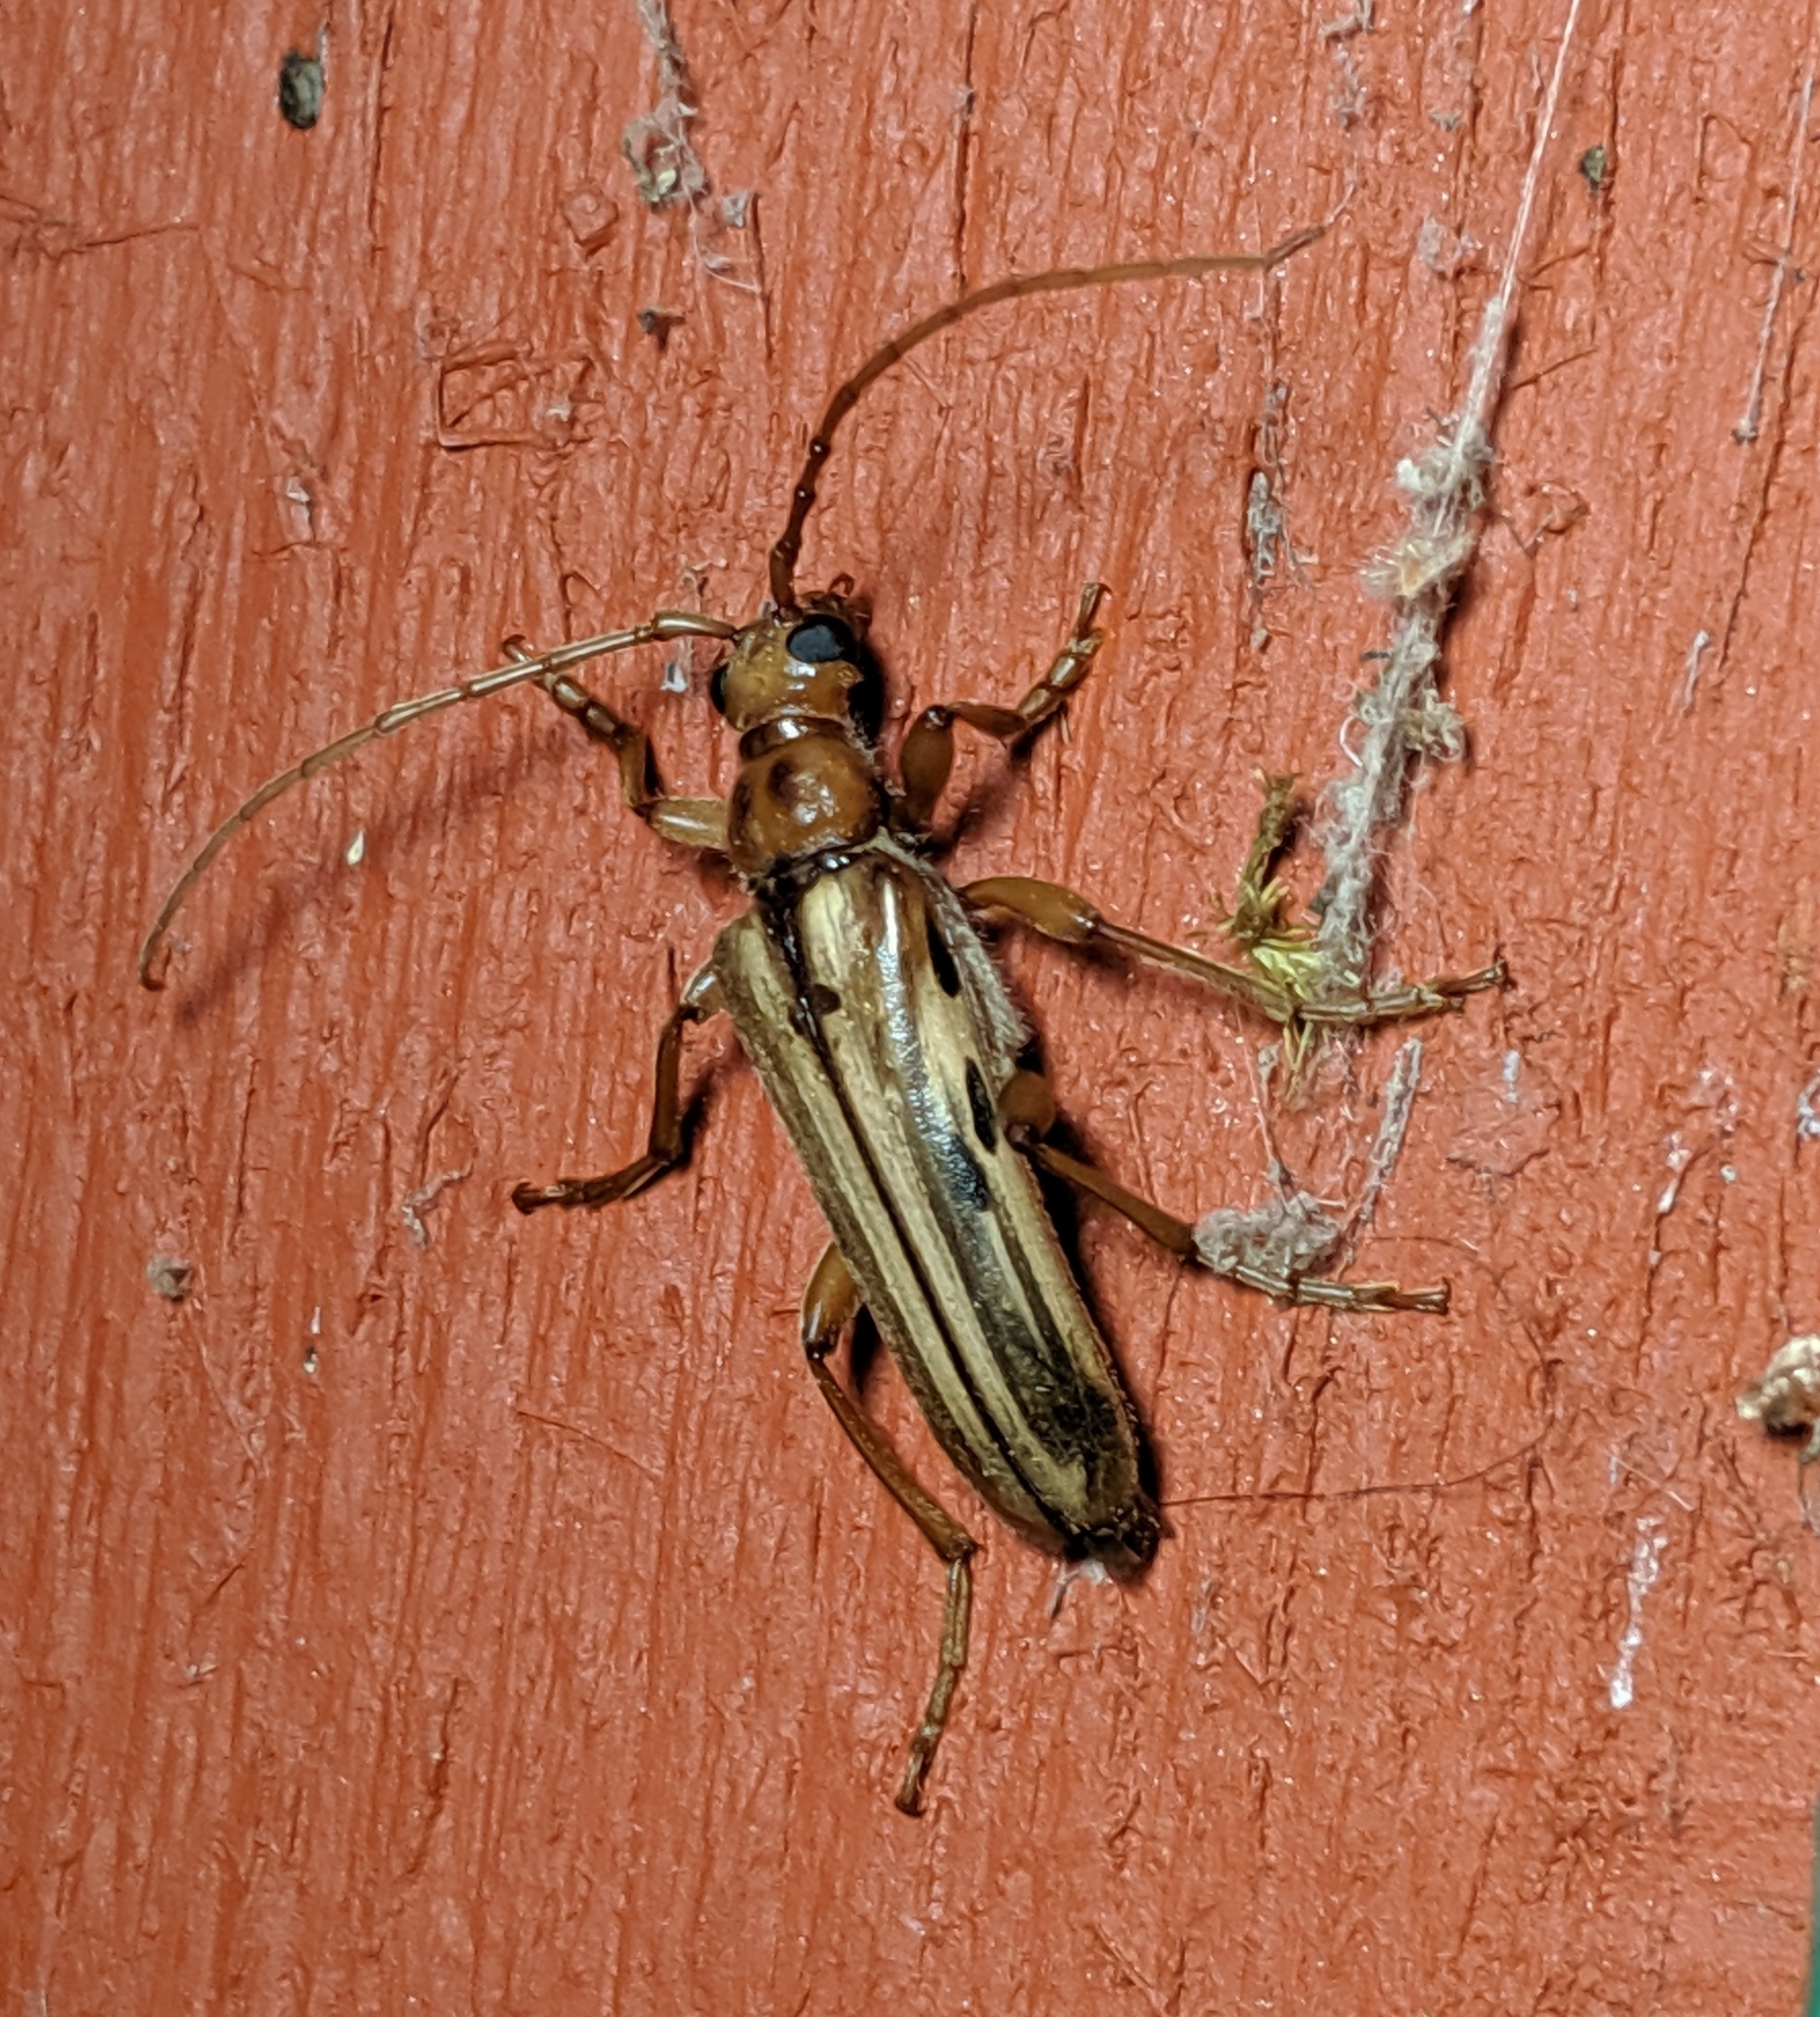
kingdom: Animalia
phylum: Arthropoda
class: Insecta
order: Coleoptera
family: Cerambycidae
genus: Ortholeptura
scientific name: Ortholeptura valida
